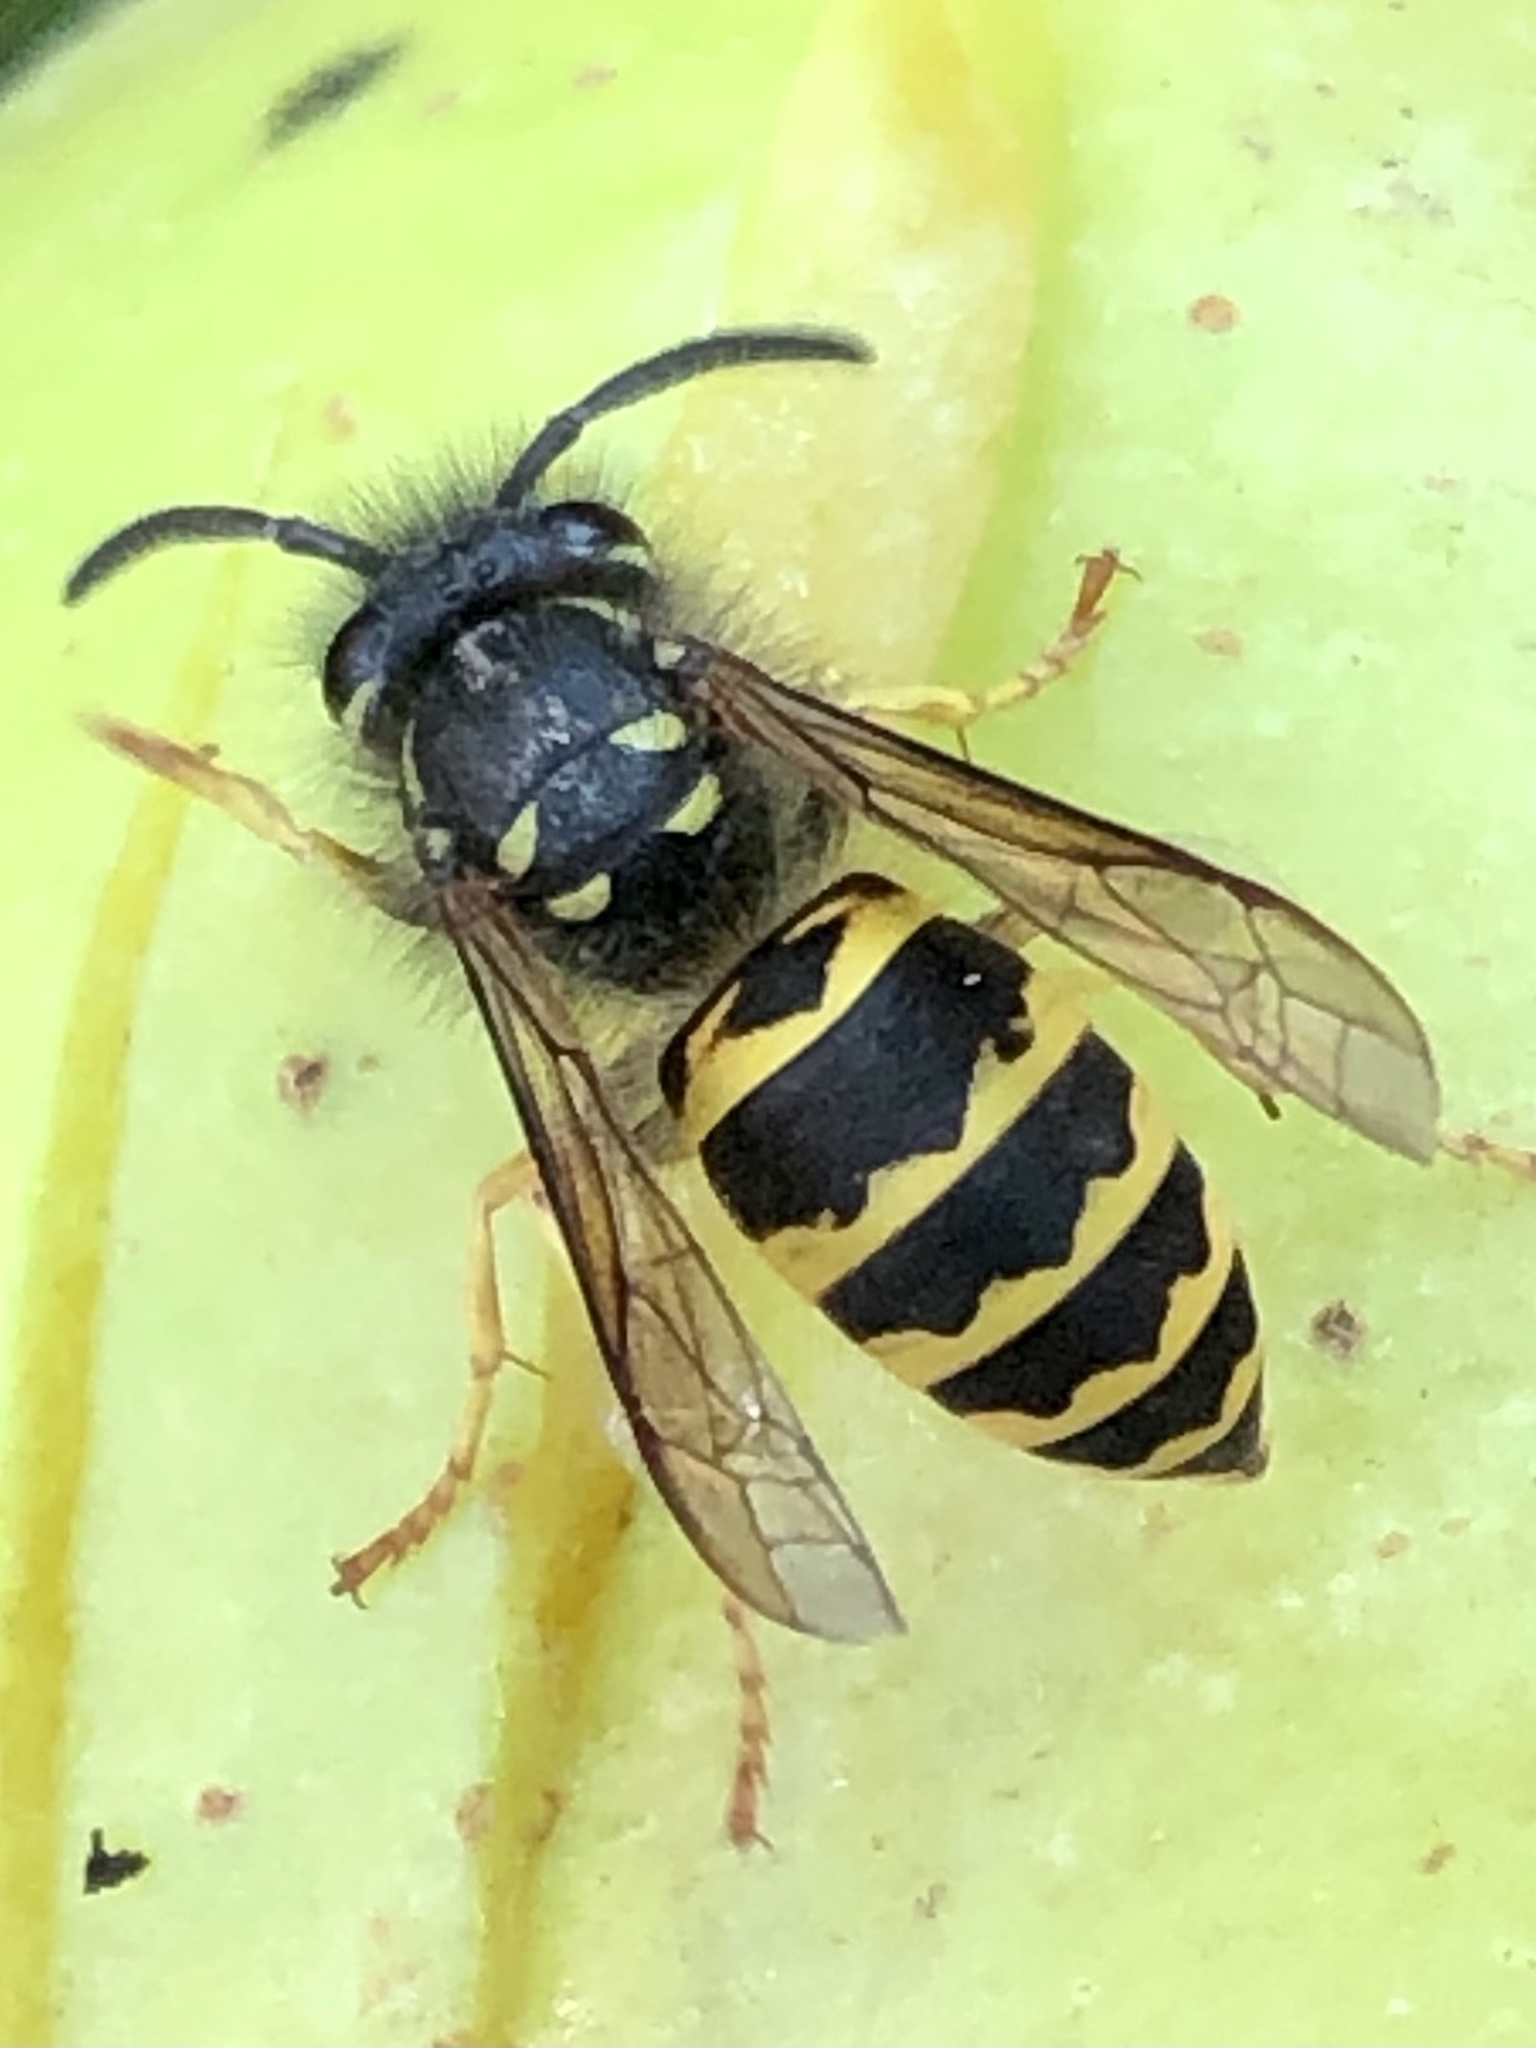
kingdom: Animalia
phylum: Arthropoda
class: Insecta
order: Hymenoptera
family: Vespidae
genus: Vespula
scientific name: Vespula alascensis
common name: Alaska yellowjacket
